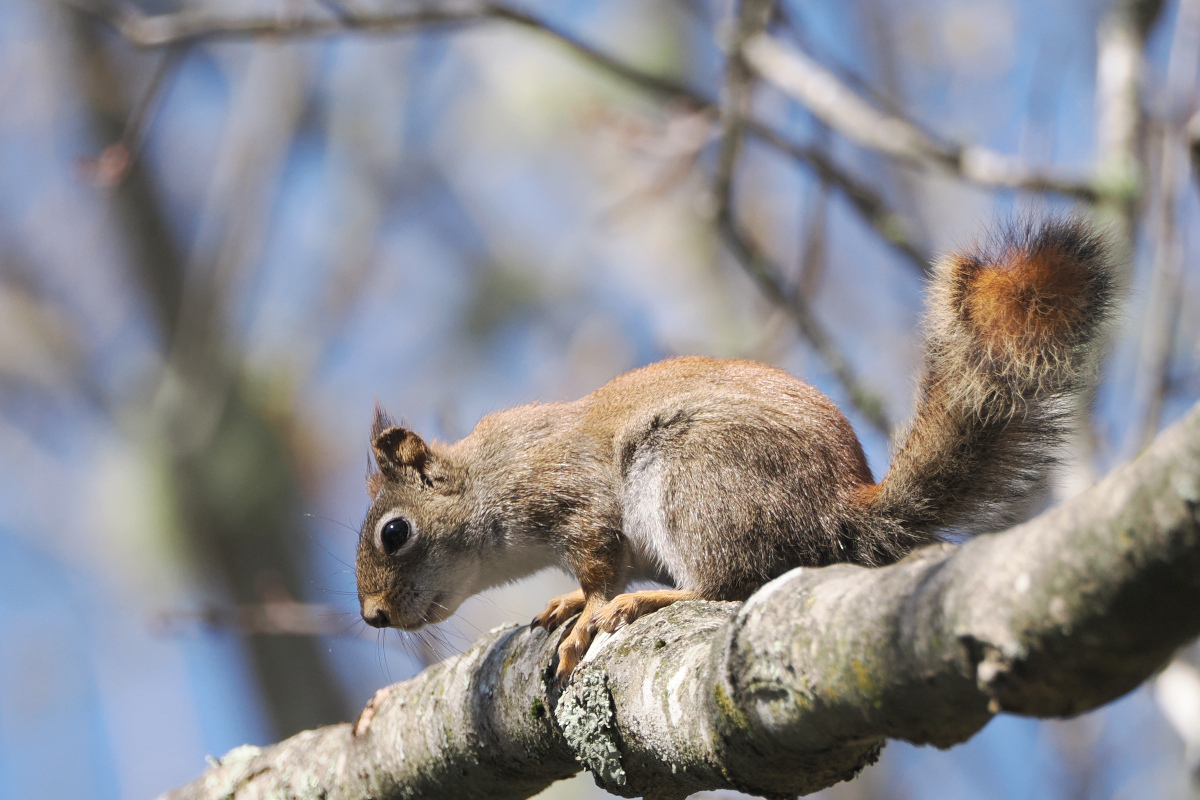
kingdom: Animalia
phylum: Chordata
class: Mammalia
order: Rodentia
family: Sciuridae
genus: Tamiasciurus
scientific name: Tamiasciurus hudsonicus
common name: Red squirrel
